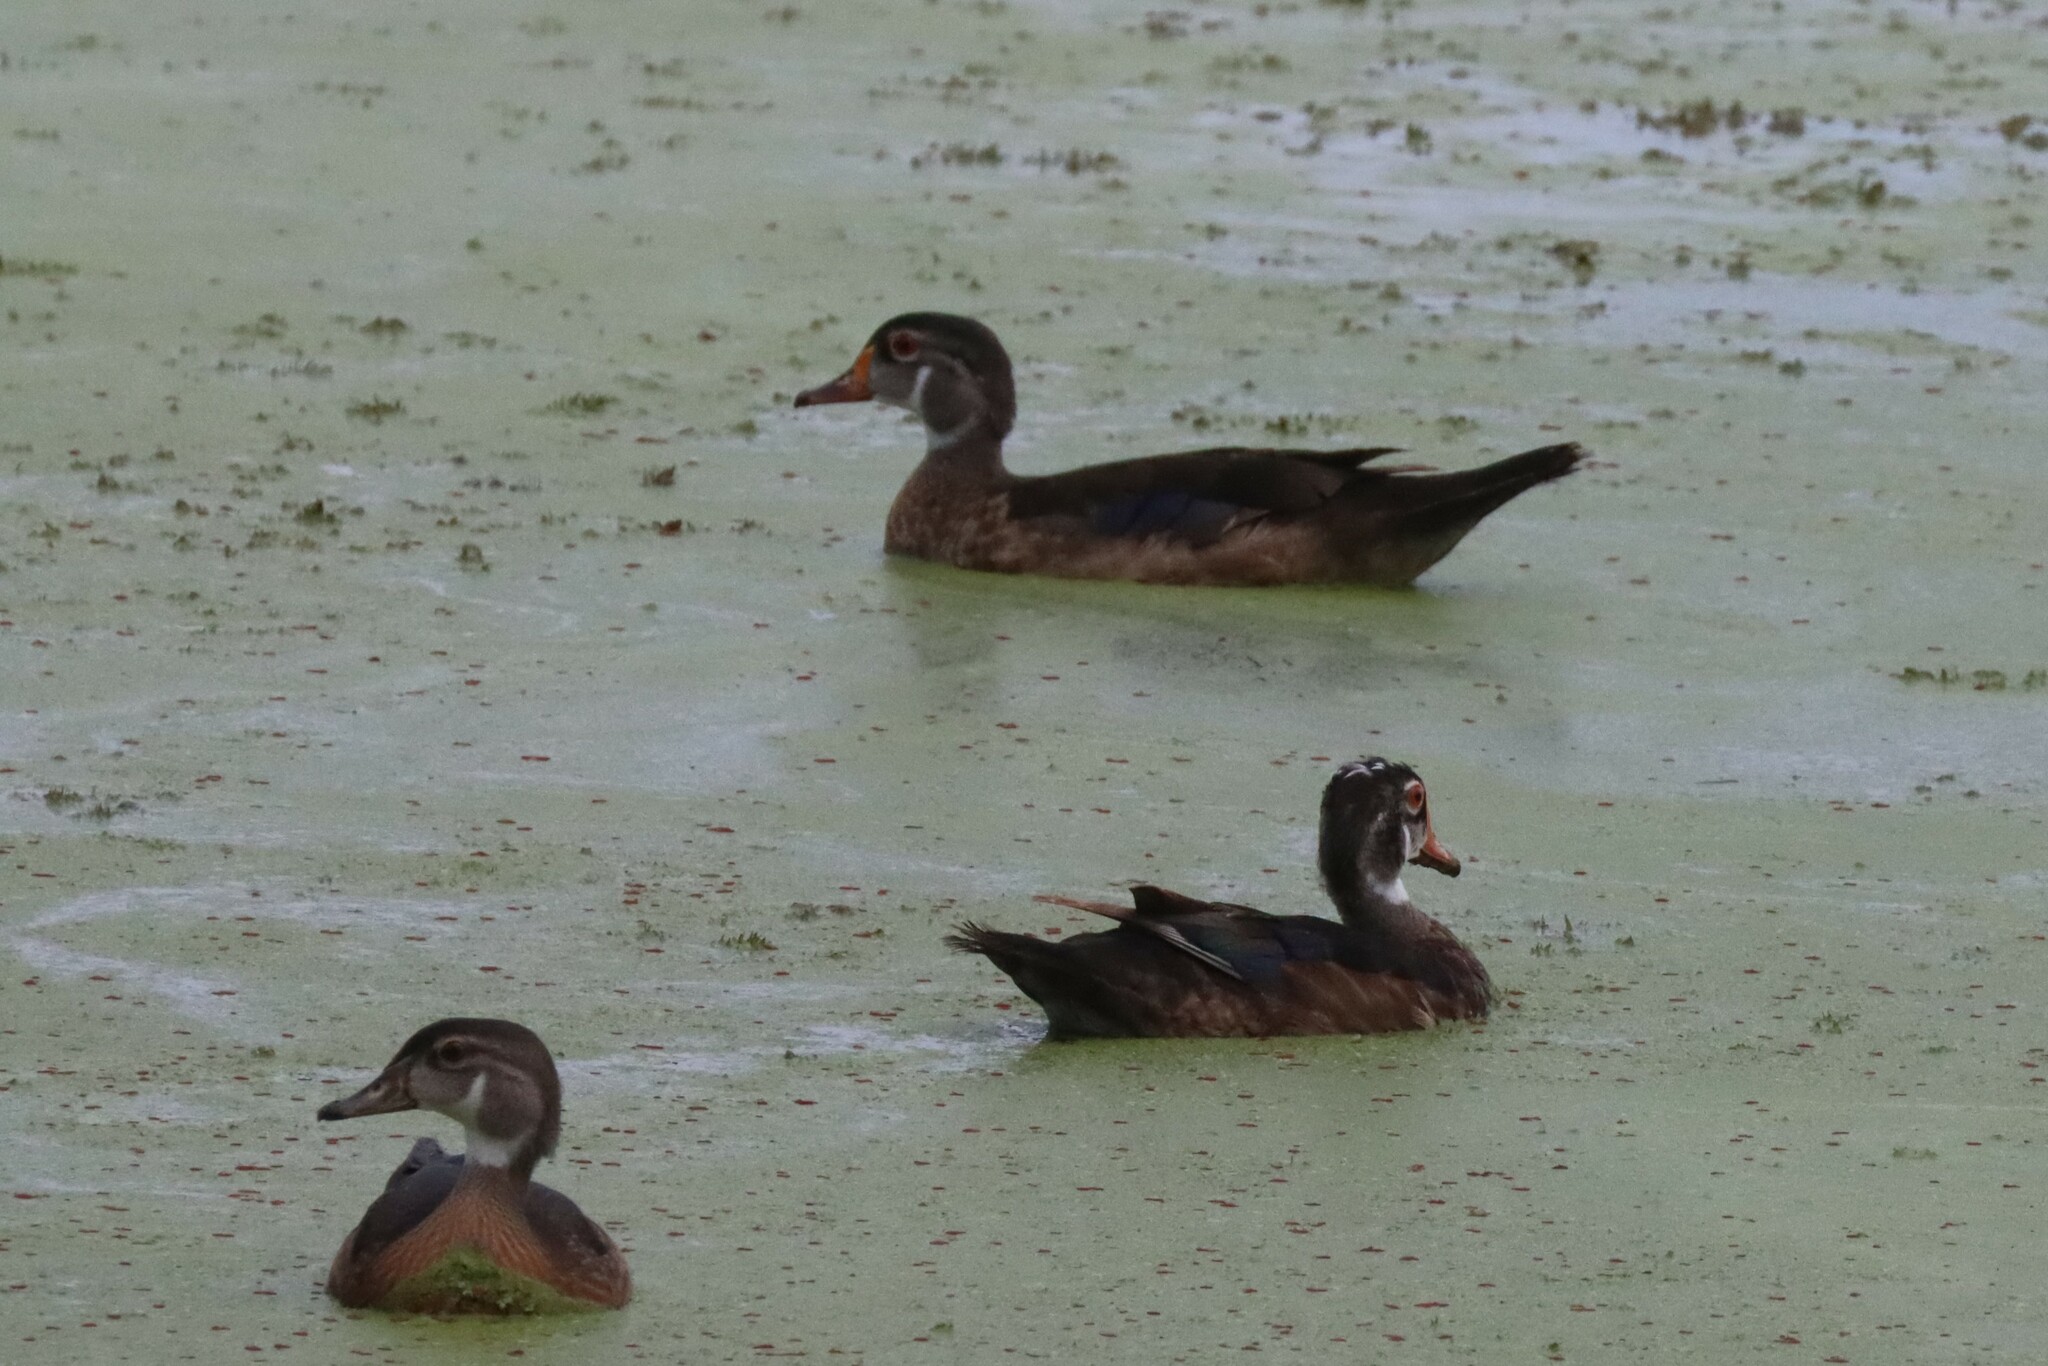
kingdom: Animalia
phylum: Chordata
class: Aves
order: Anseriformes
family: Anatidae
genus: Aix
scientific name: Aix sponsa
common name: Wood duck
